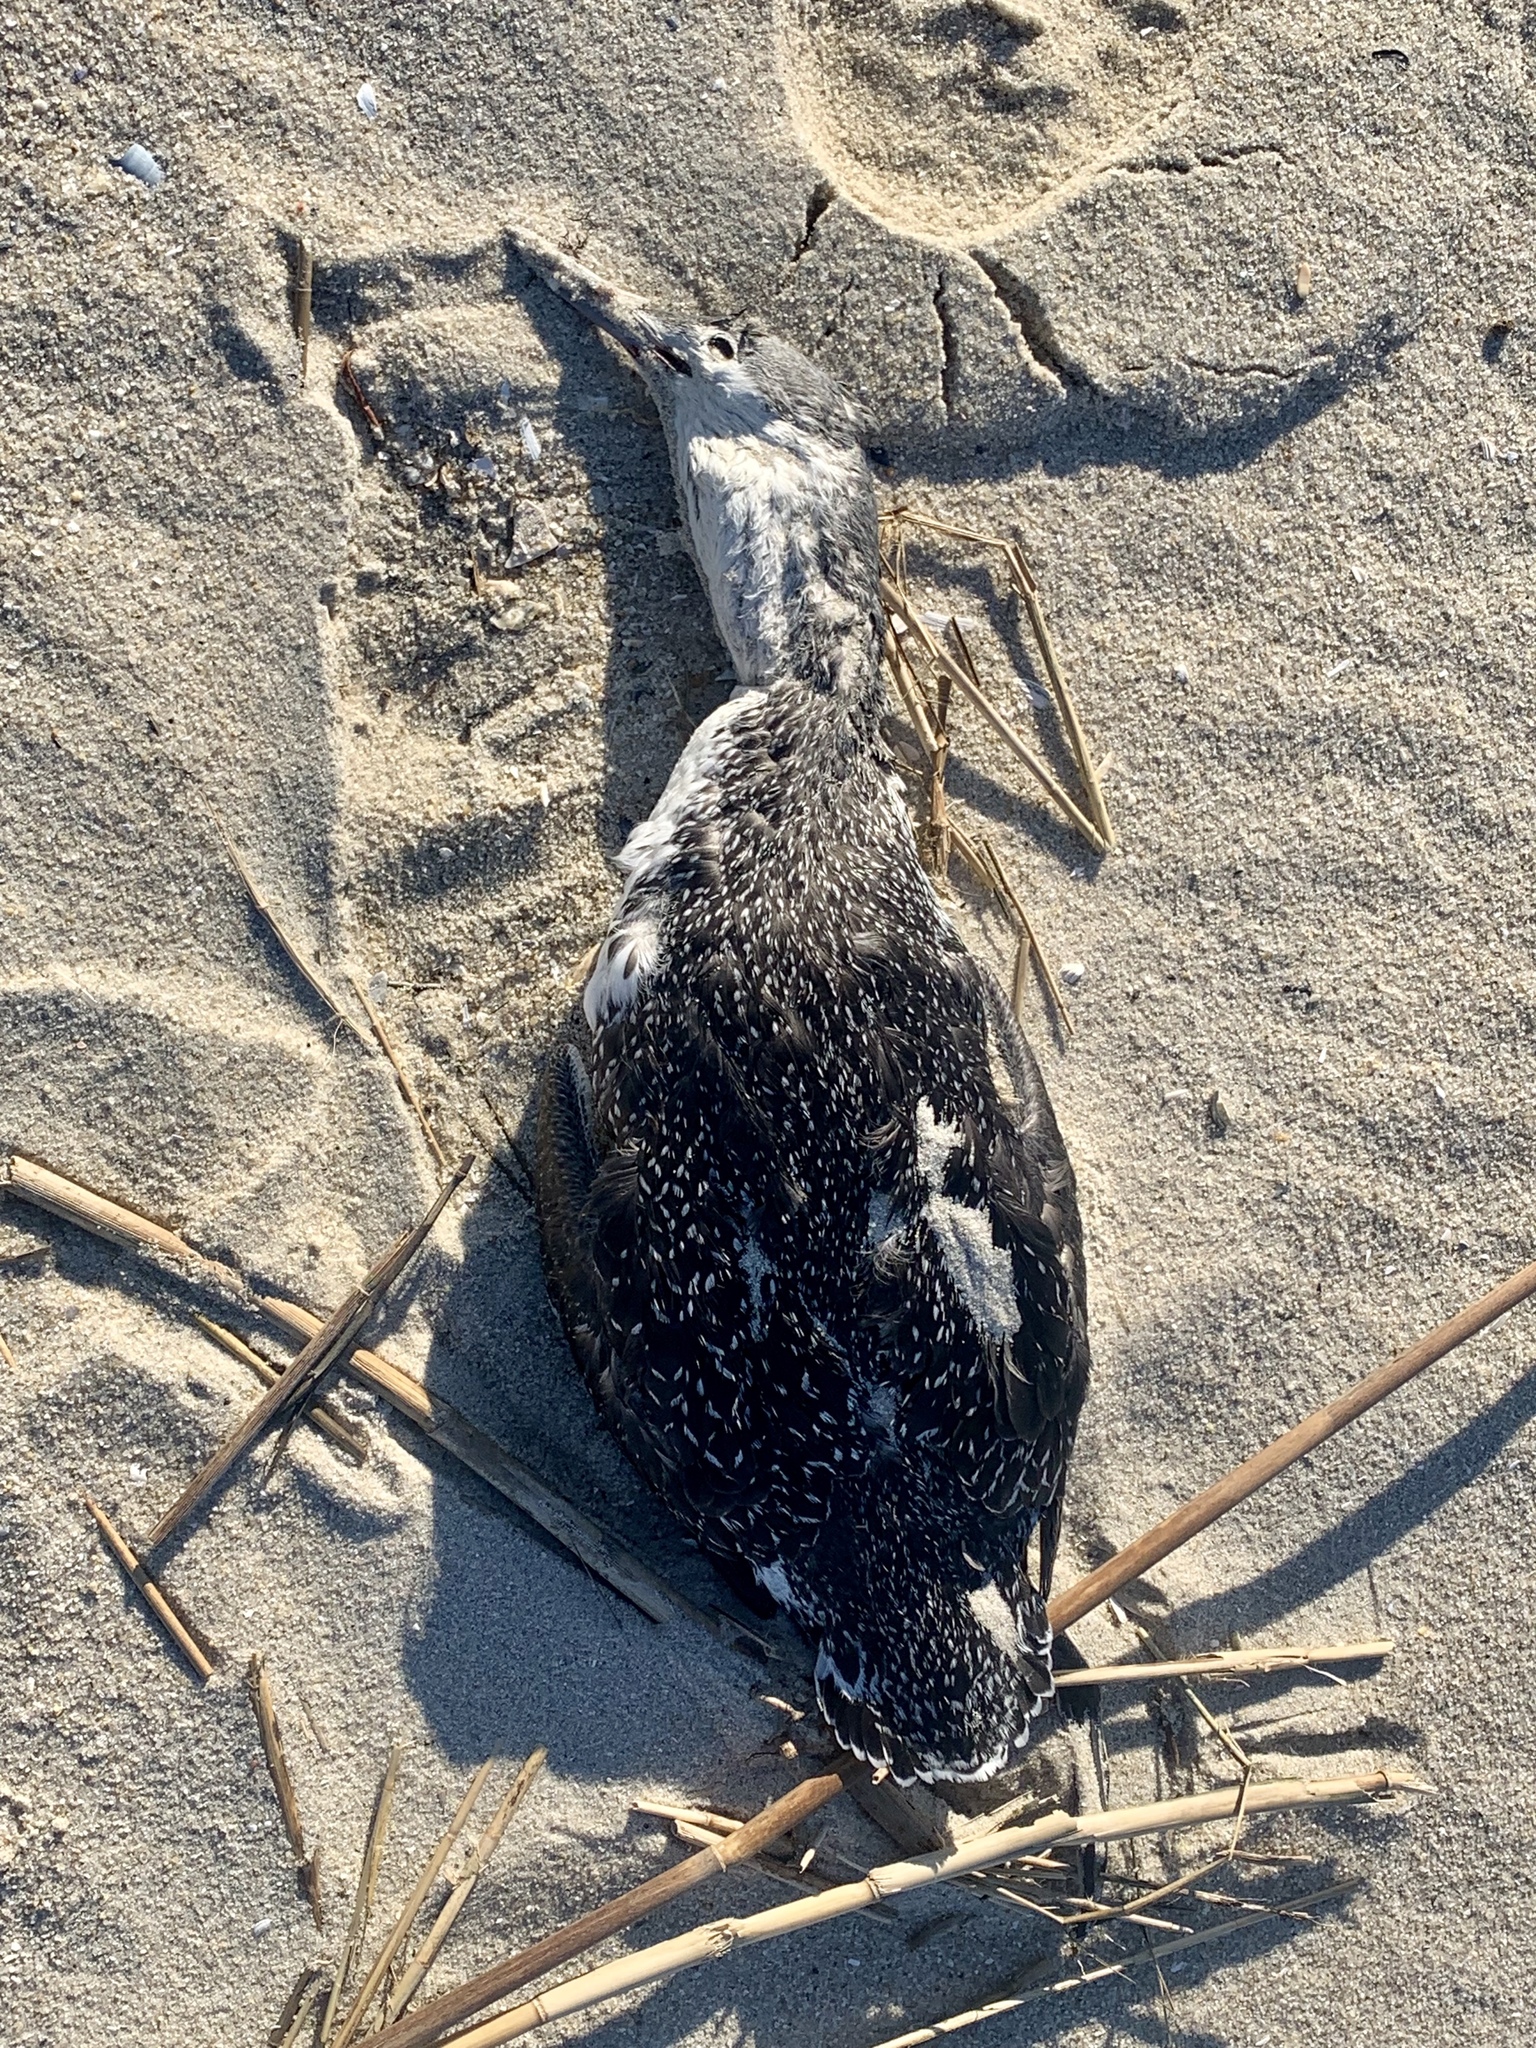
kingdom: Animalia
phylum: Chordata
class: Aves
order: Gaviiformes
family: Gaviidae
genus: Gavia
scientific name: Gavia stellata
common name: Red-throated loon
